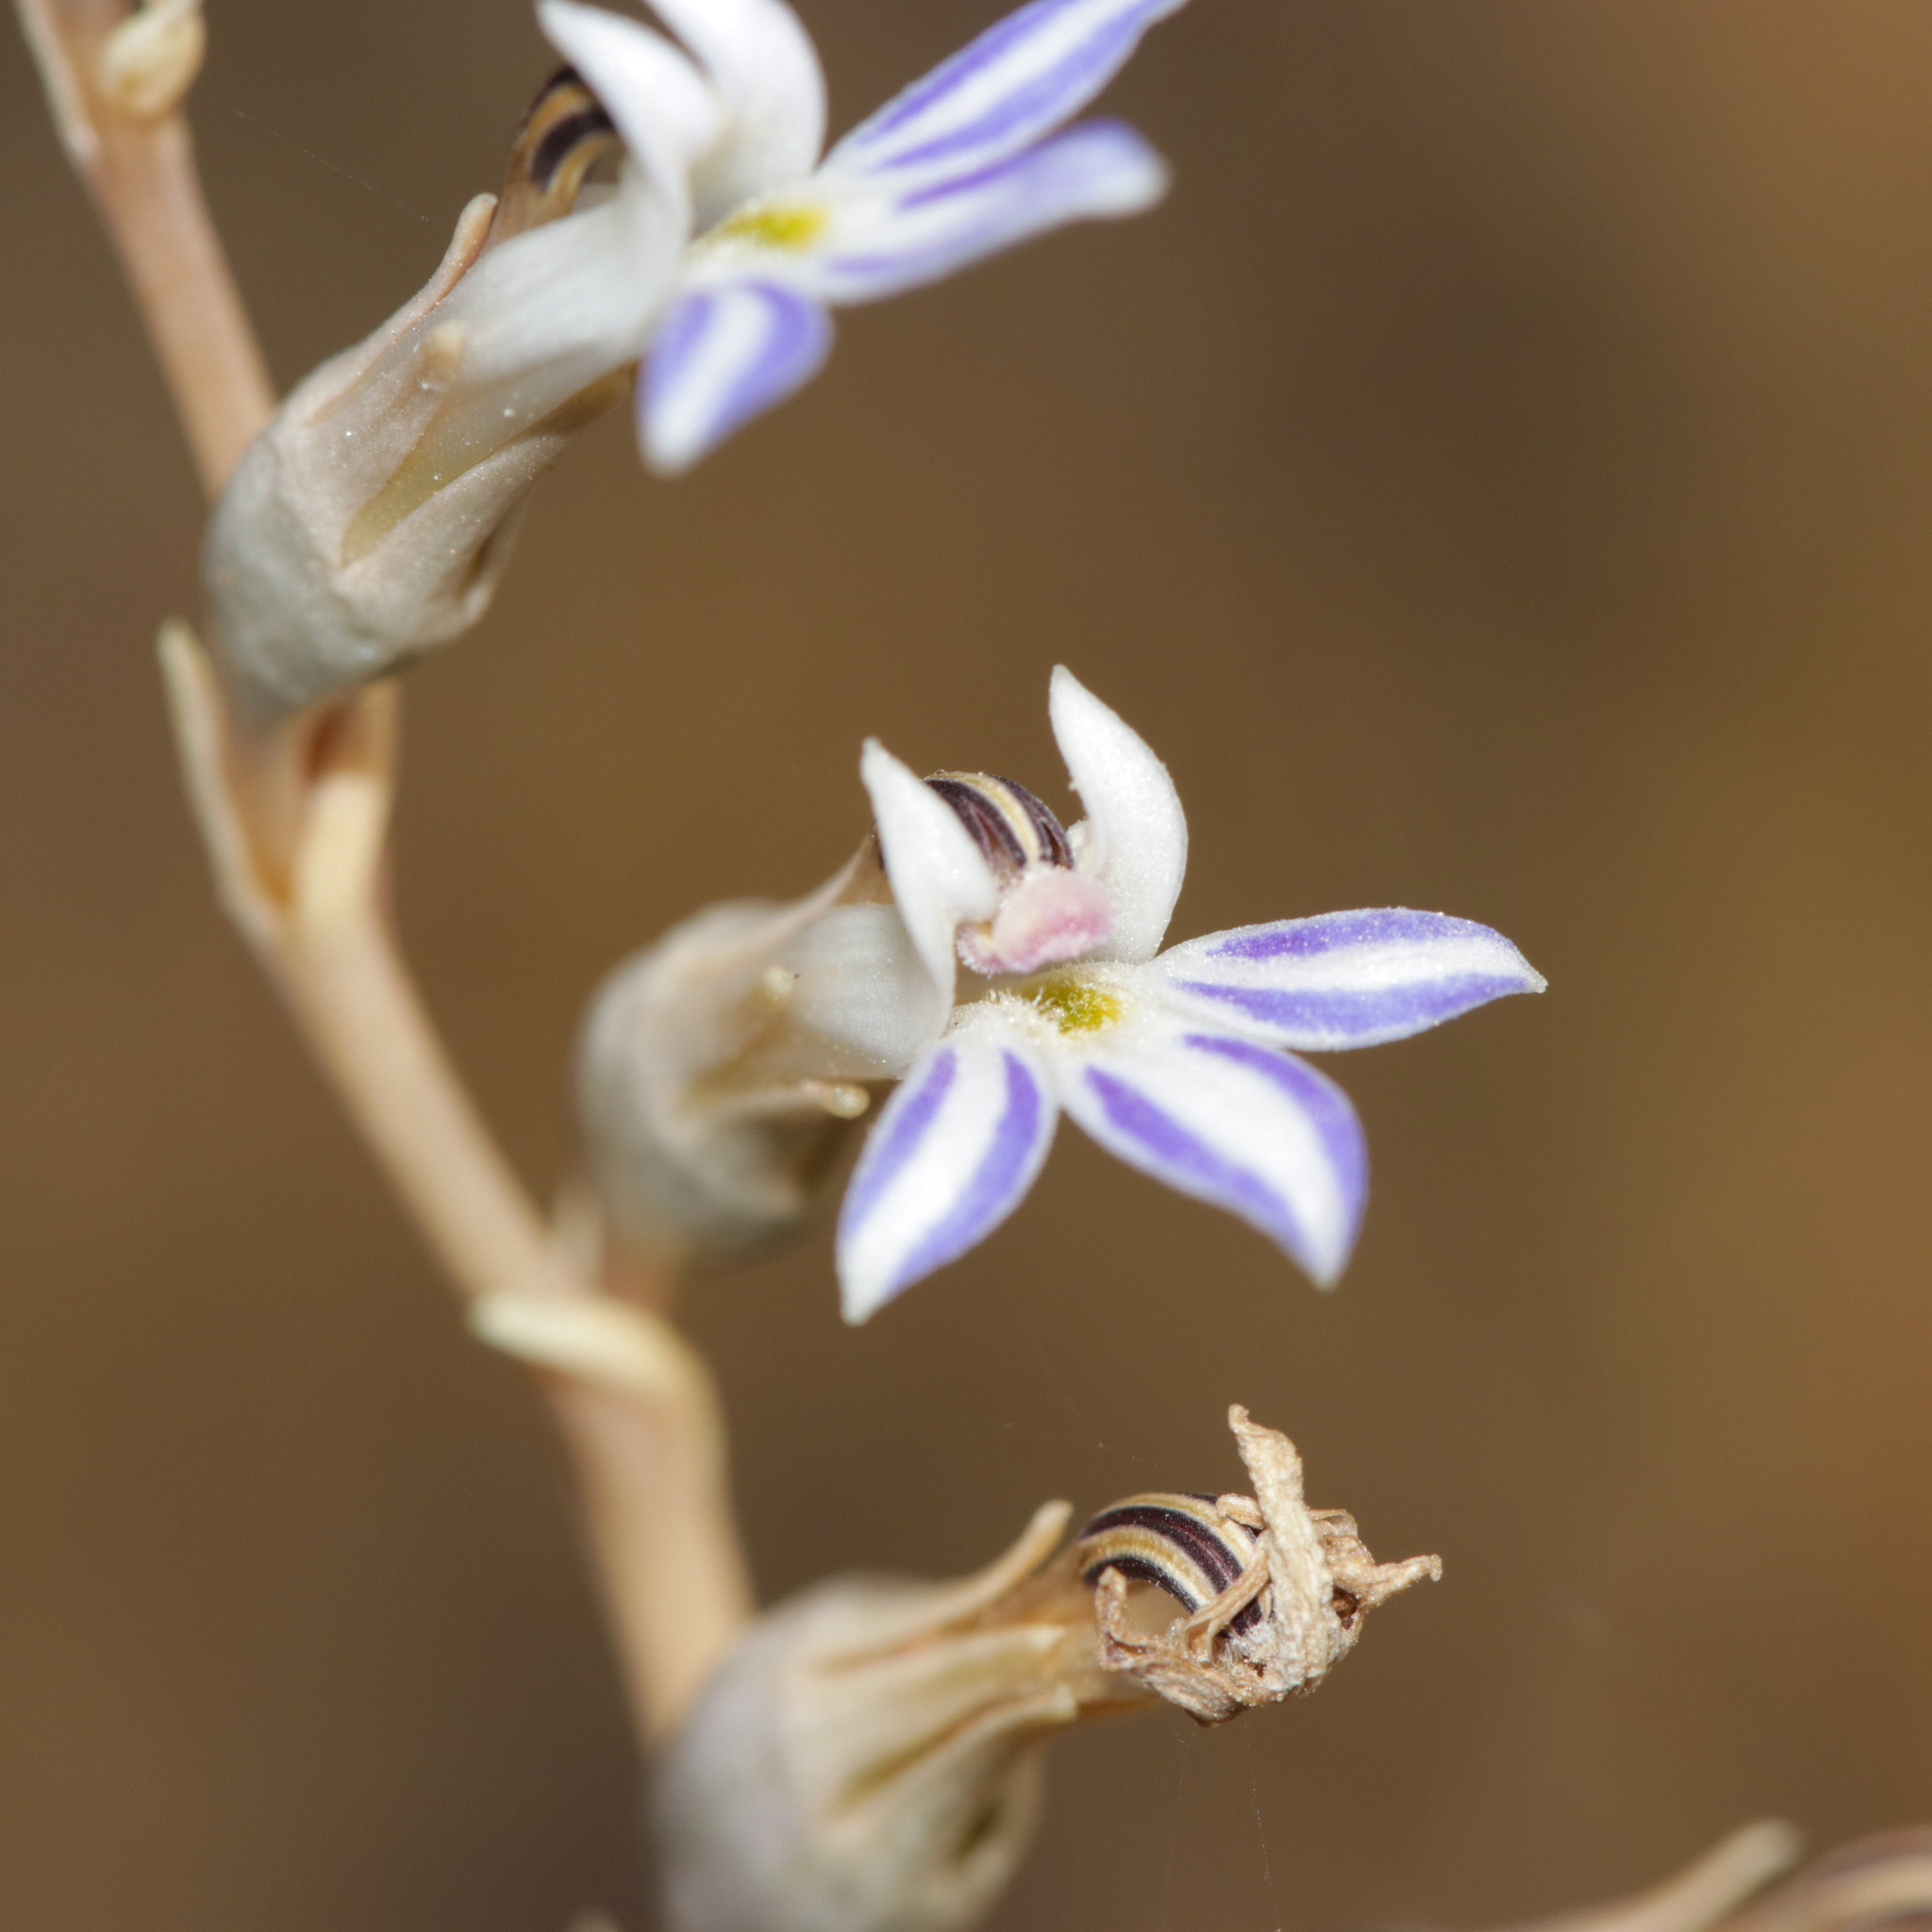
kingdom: Plantae
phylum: Tracheophyta
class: Magnoliopsida
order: Asterales
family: Campanulaceae
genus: Lobelia
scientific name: Lobelia gibbosa
